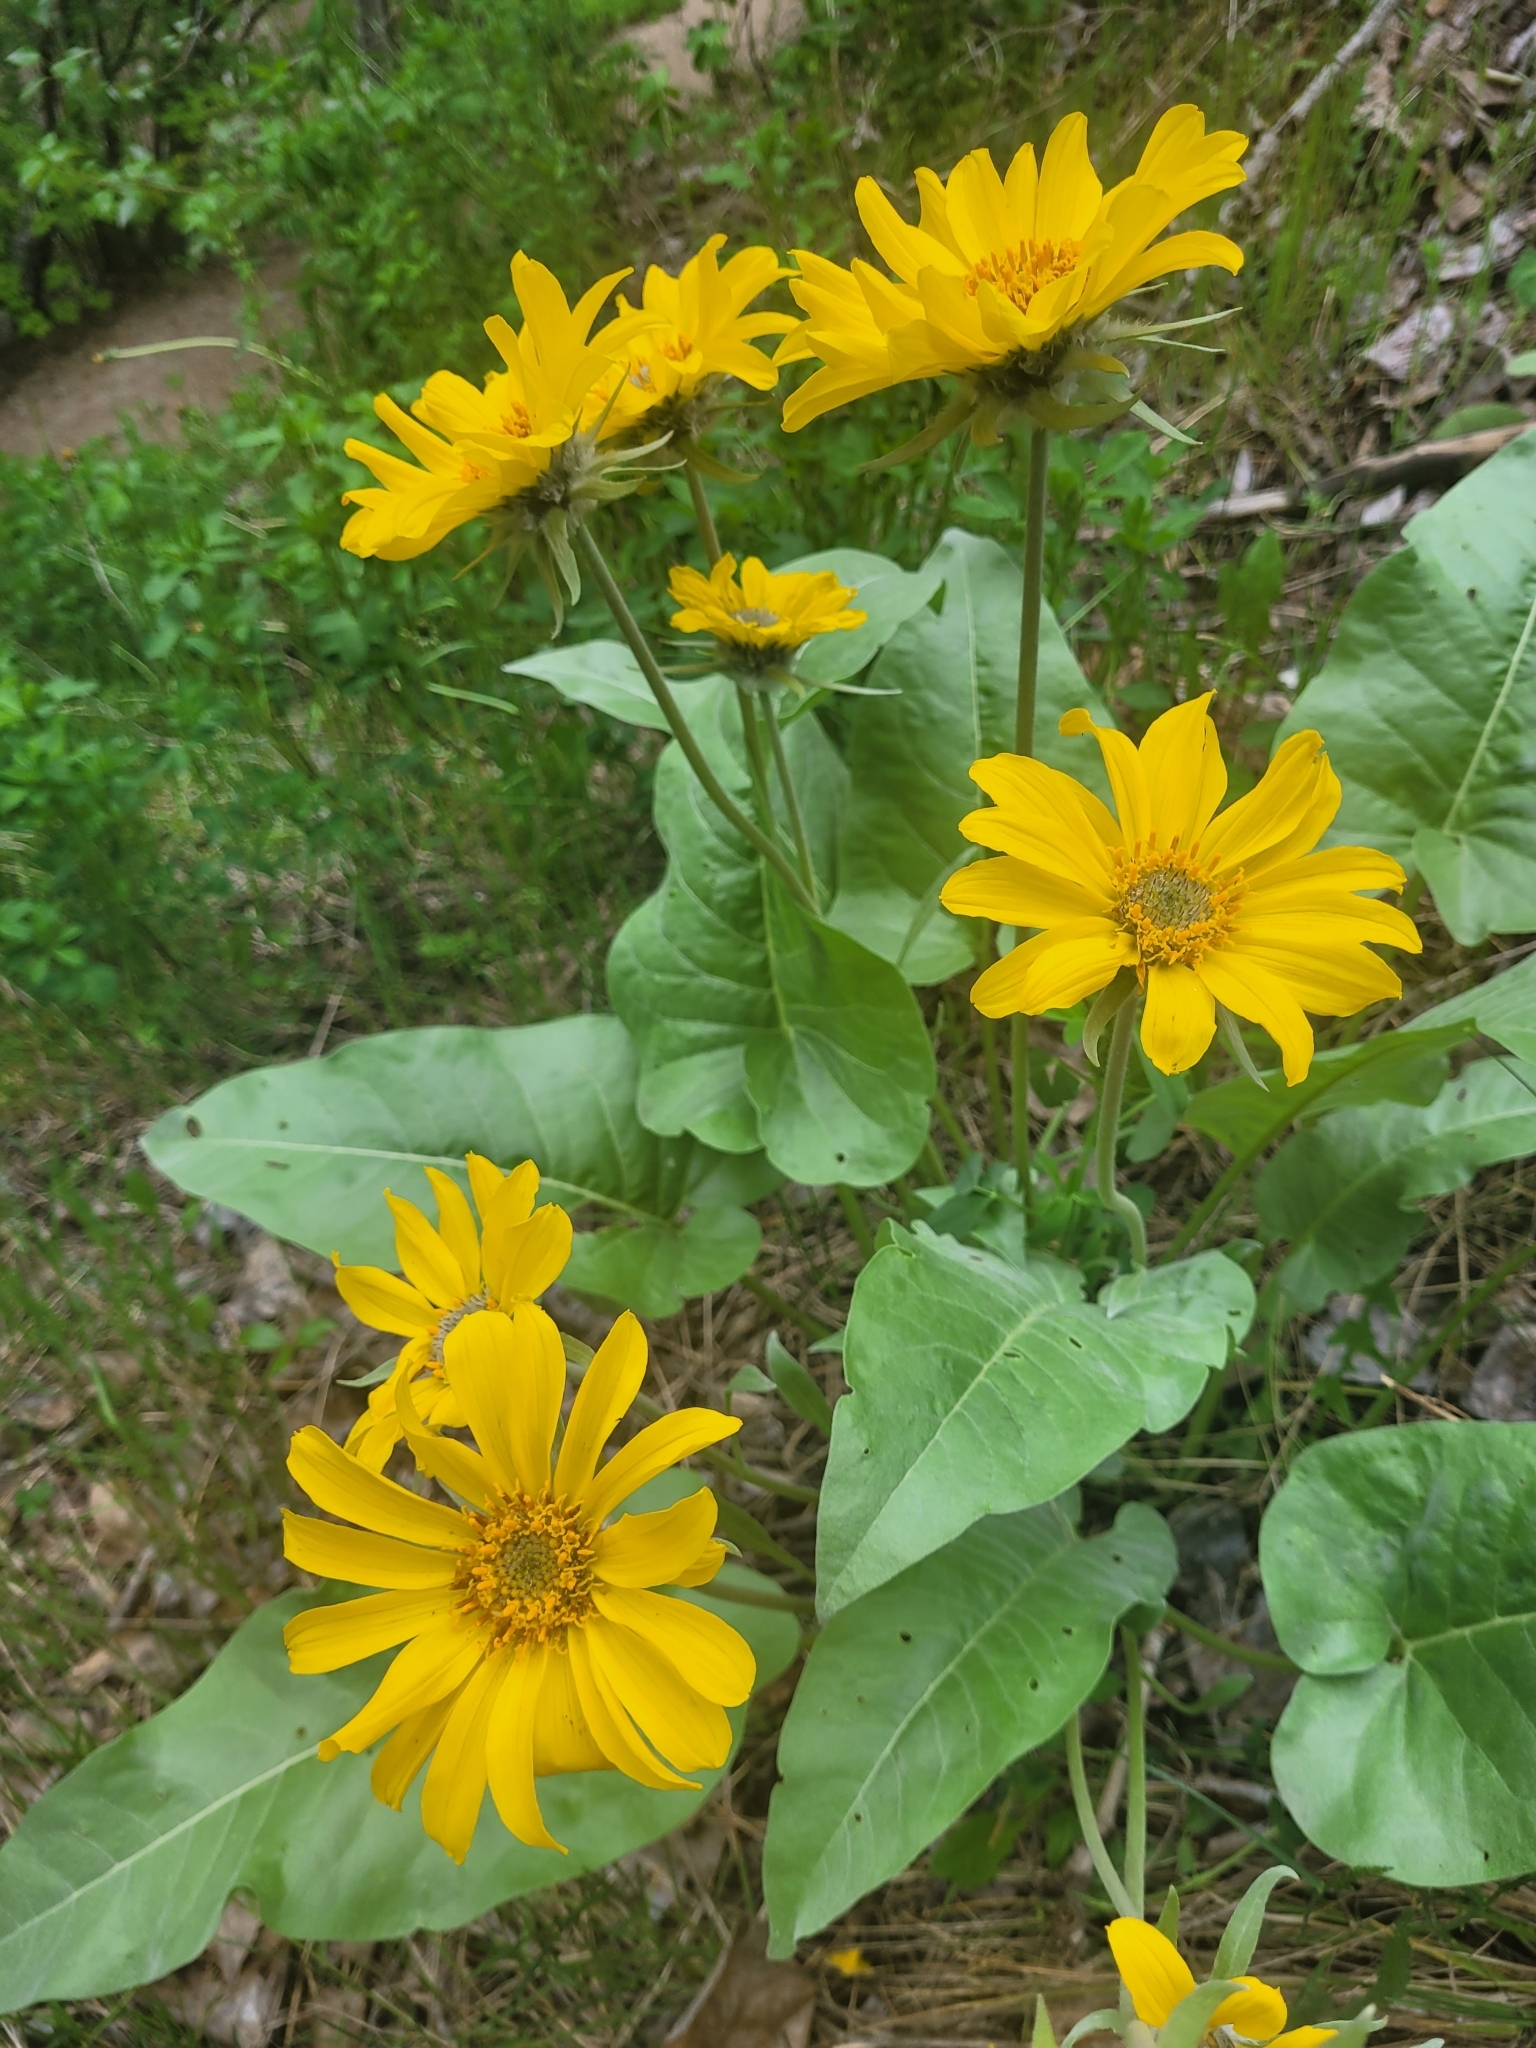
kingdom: Plantae
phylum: Tracheophyta
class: Magnoliopsida
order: Asterales
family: Asteraceae
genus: Wyethia
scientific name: Wyethia sagittata
